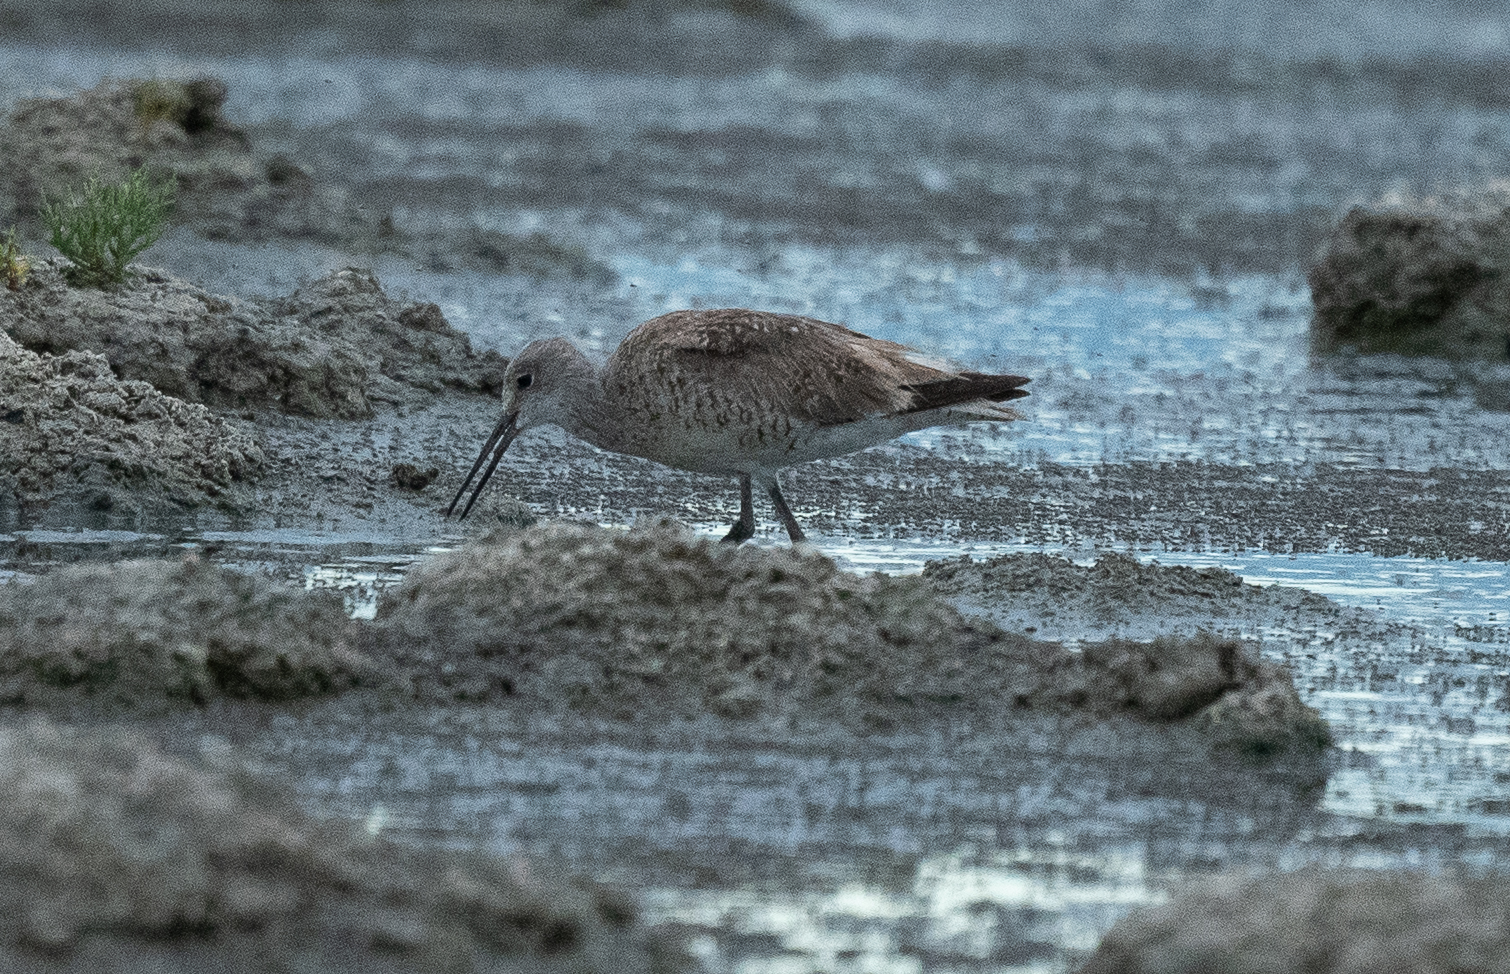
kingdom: Animalia
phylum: Chordata
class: Aves
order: Charadriiformes
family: Scolopacidae
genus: Tringa
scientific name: Tringa semipalmata
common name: Willet
